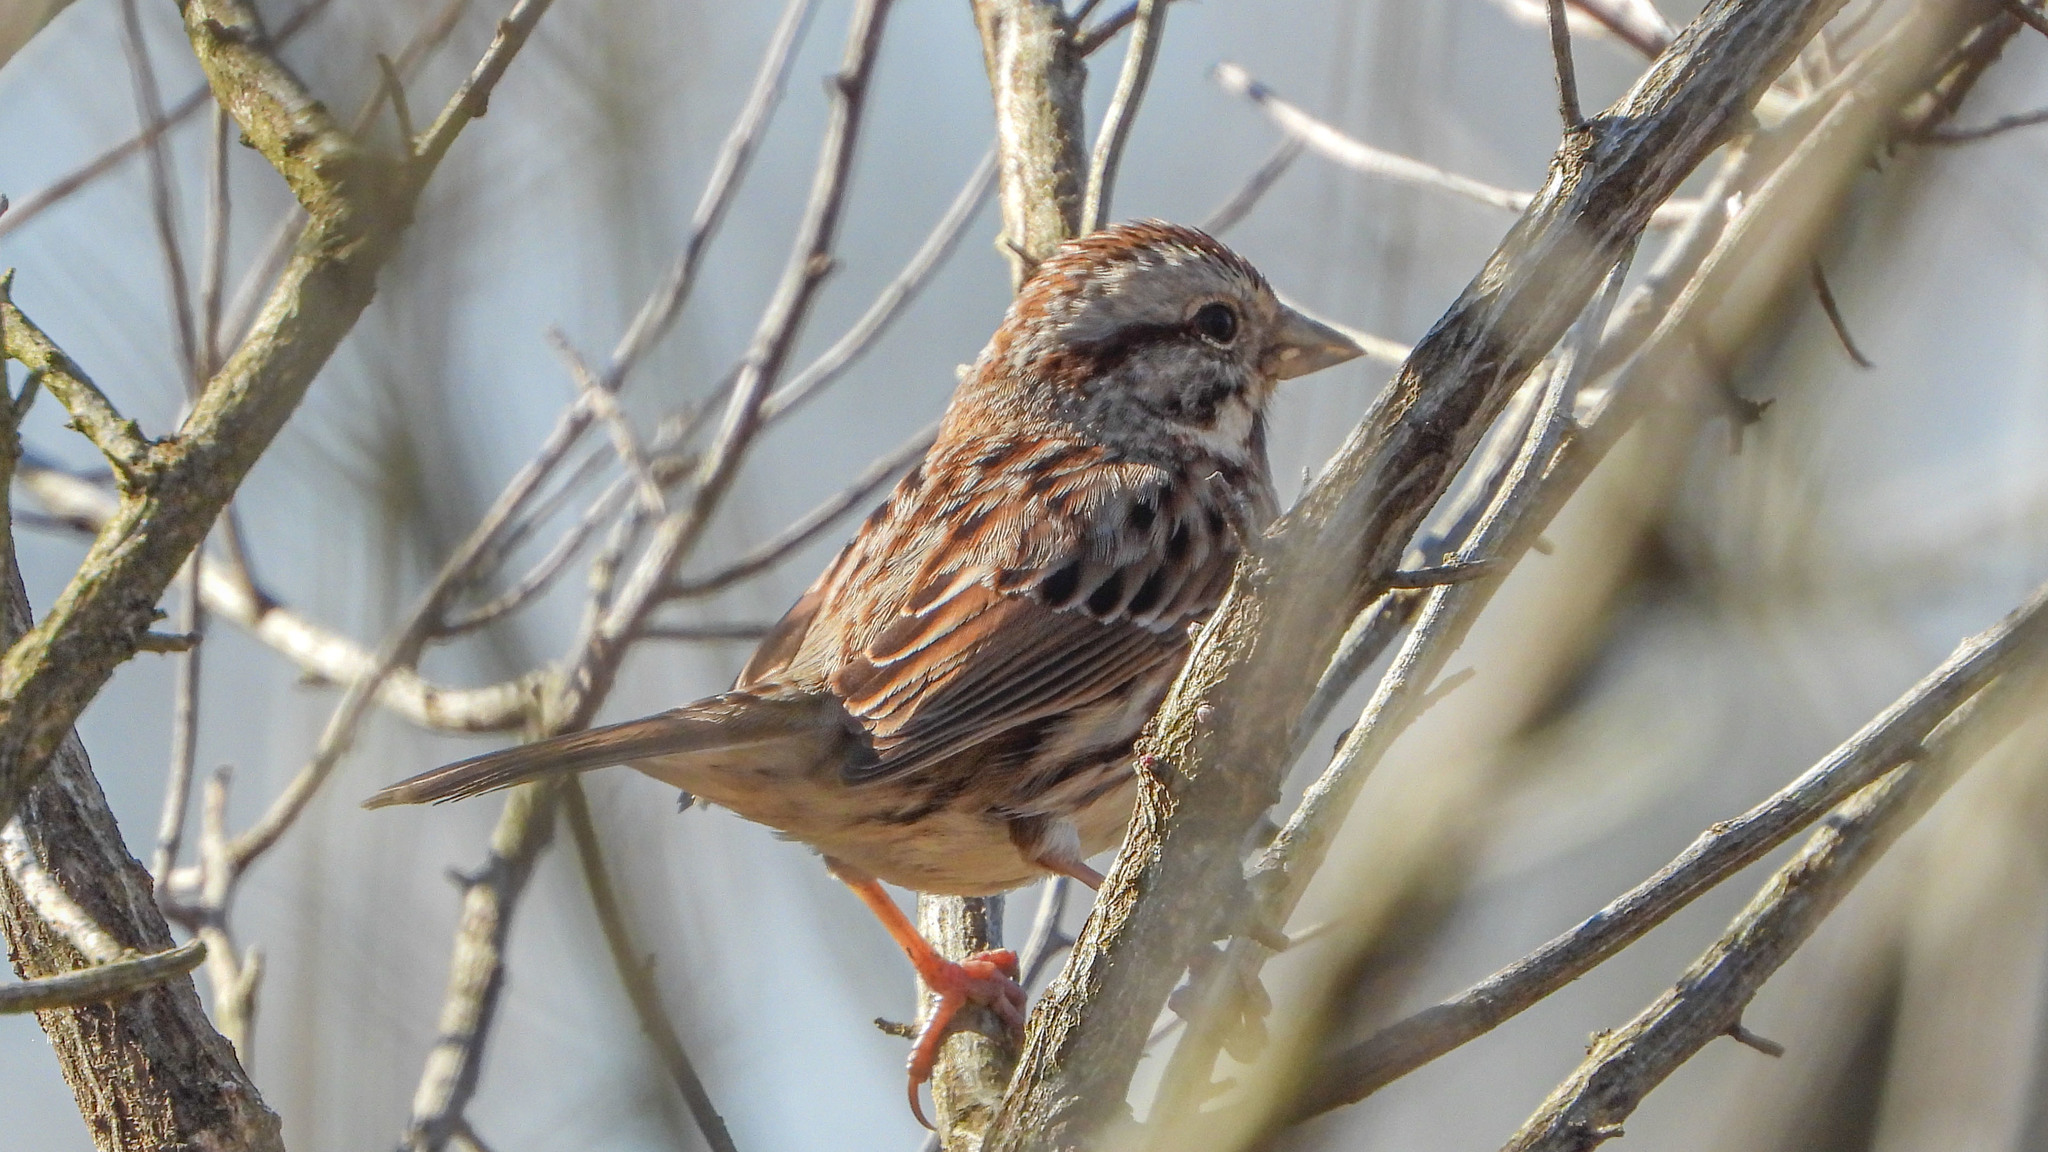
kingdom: Animalia
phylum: Chordata
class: Aves
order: Passeriformes
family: Passerellidae
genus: Melospiza
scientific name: Melospiza melodia
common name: Song sparrow
